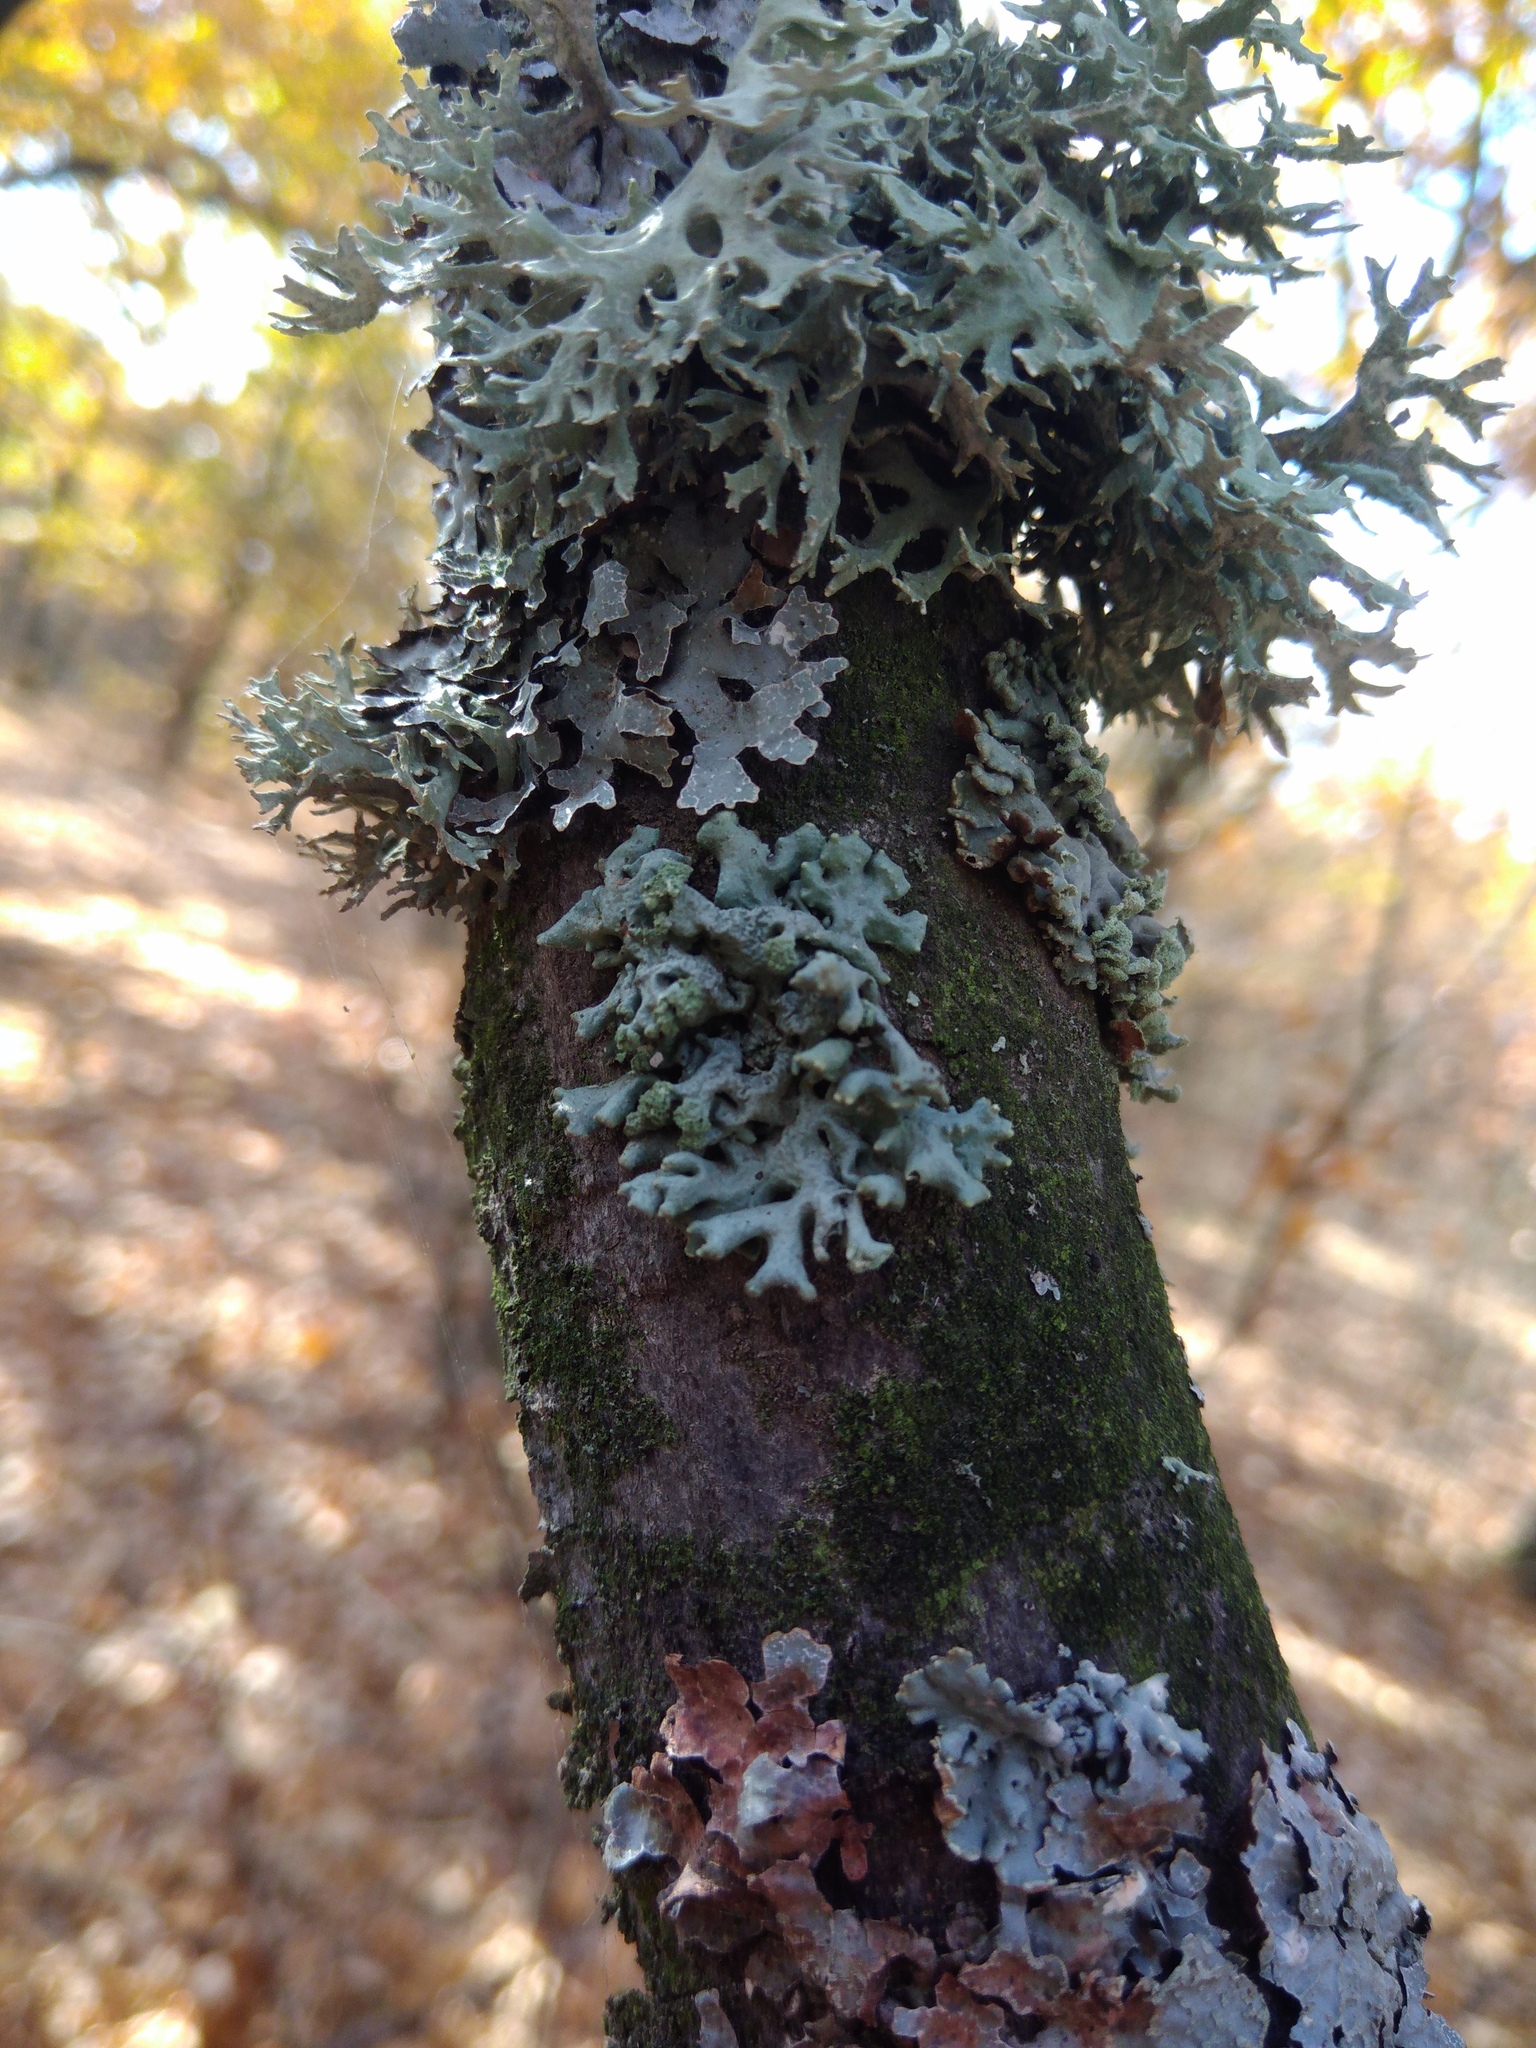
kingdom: Fungi
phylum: Ascomycota
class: Lecanoromycetes
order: Lecanorales
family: Parmeliaceae
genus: Hypogymnia
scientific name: Hypogymnia tubulosa
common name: Powder-headed tube lichen
